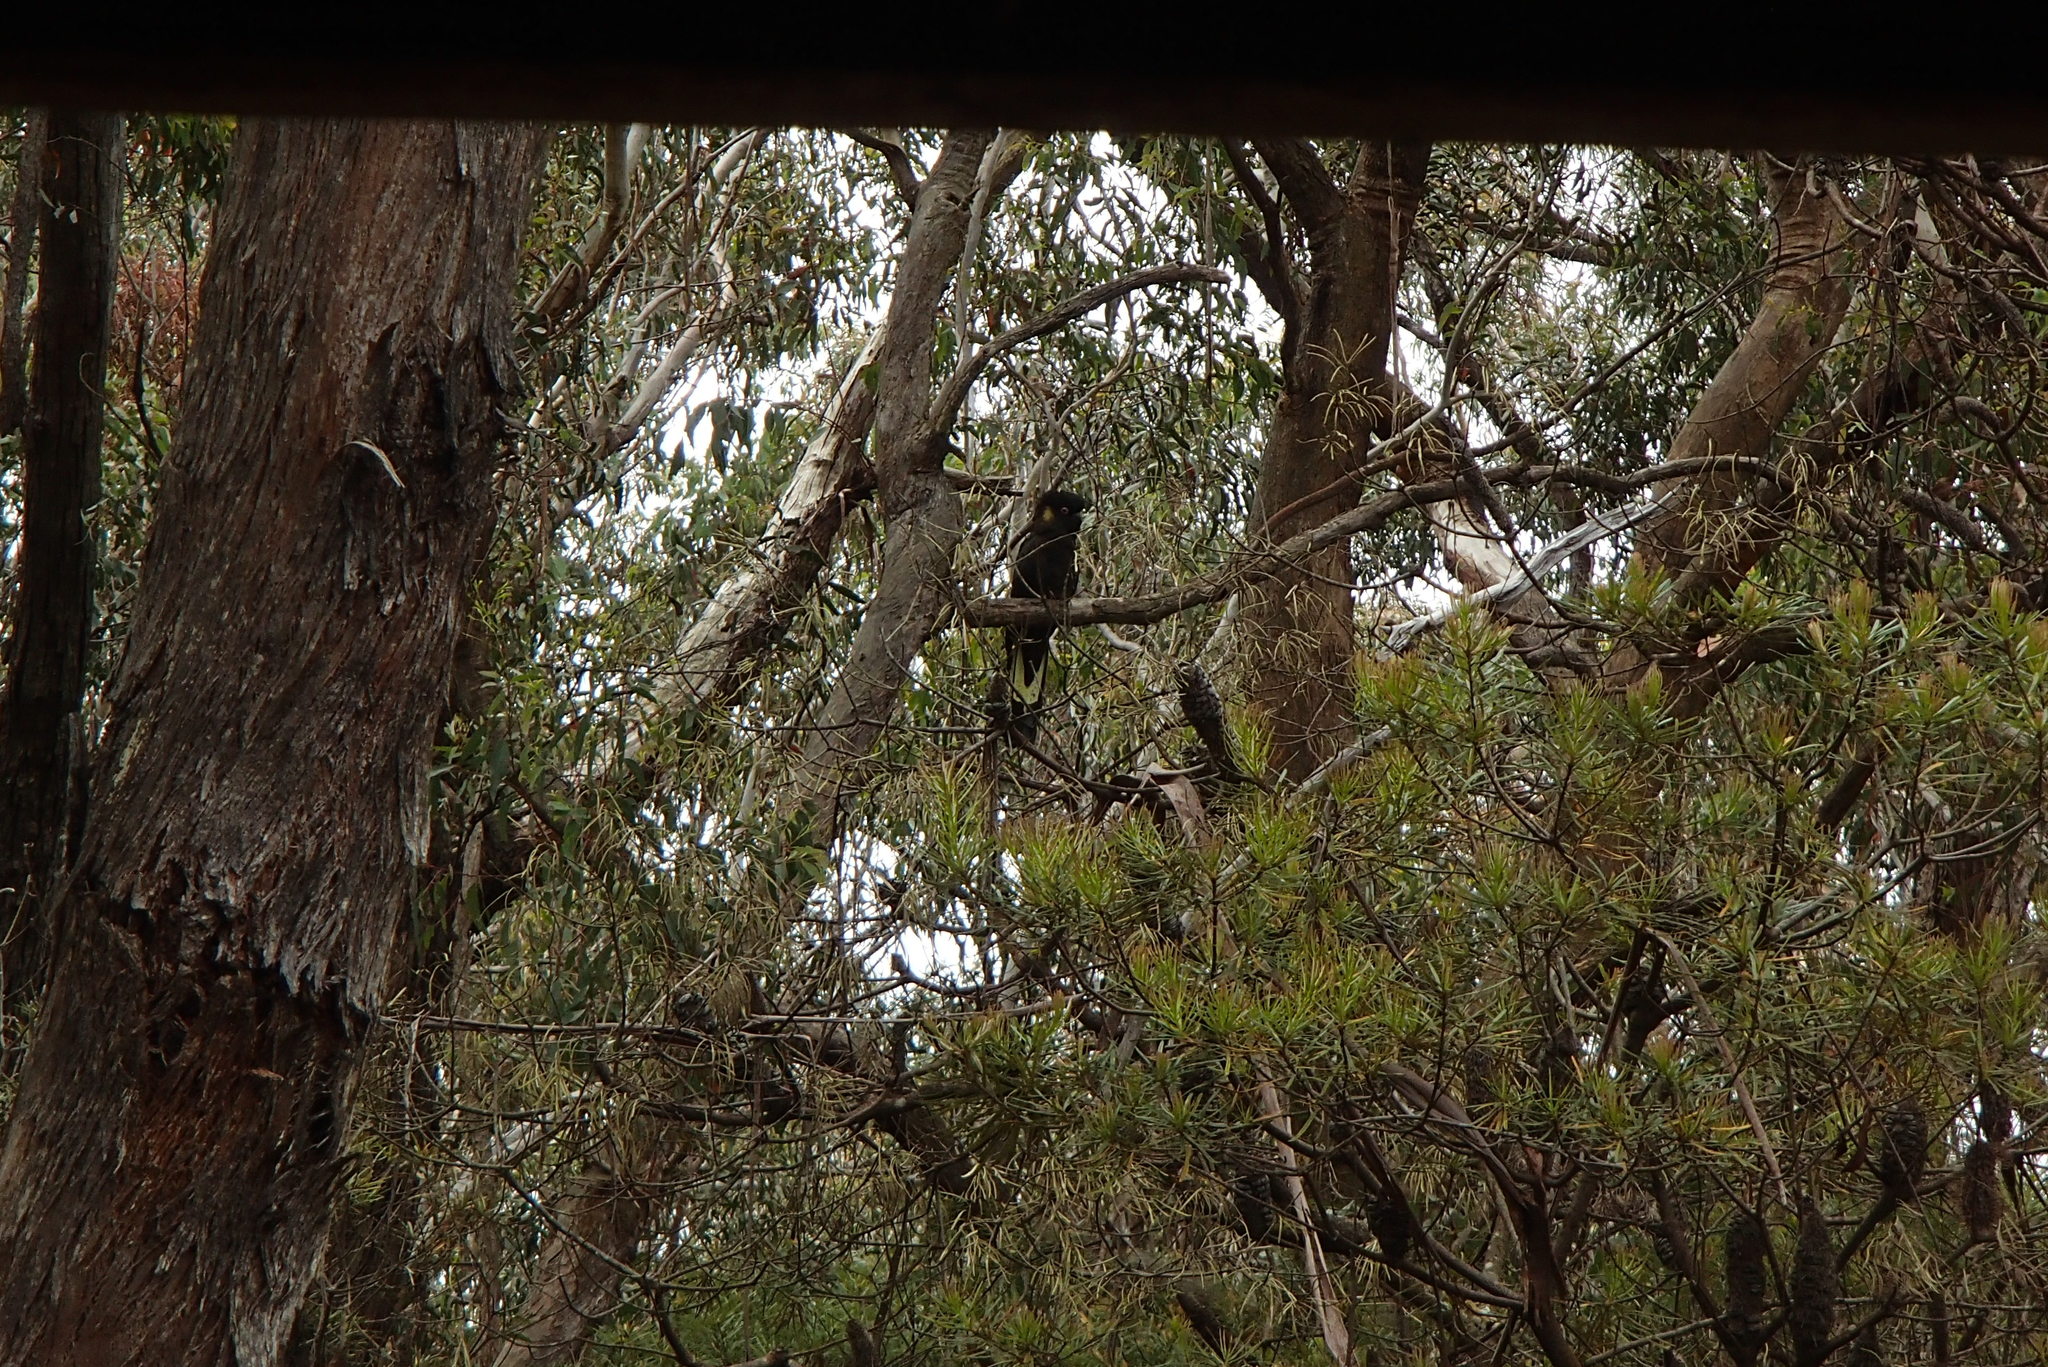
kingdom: Animalia
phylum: Chordata
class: Aves
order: Psittaciformes
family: Cacatuidae
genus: Zanda
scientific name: Zanda funerea
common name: Yellow-tailed black-cockatoo
